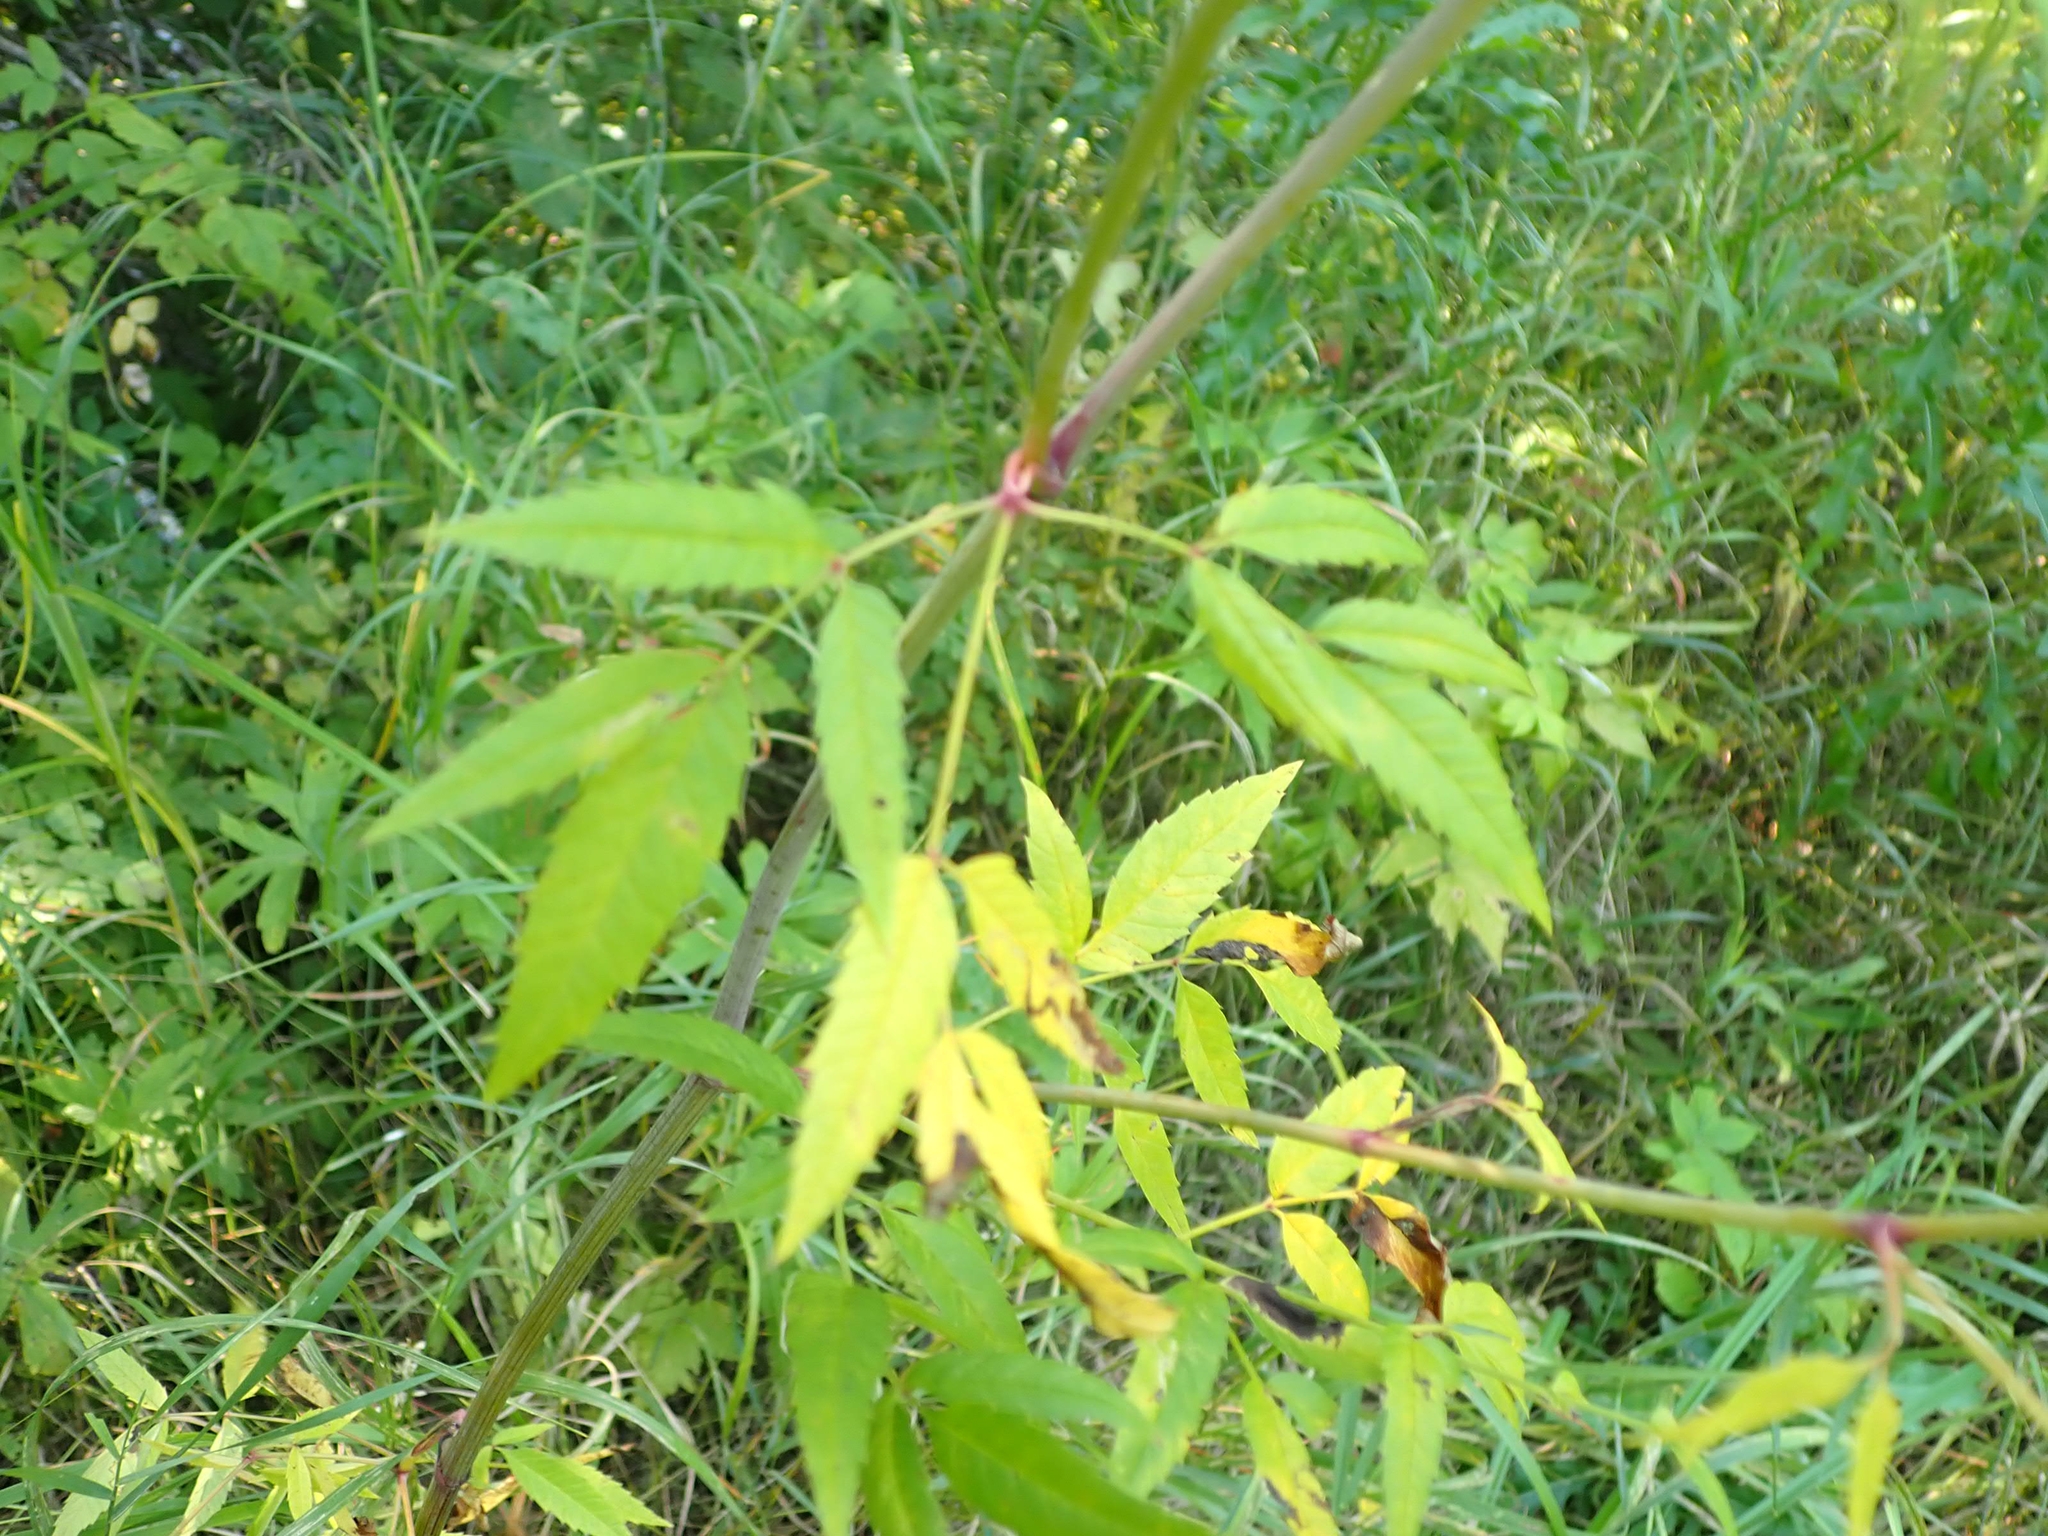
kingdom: Plantae
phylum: Tracheophyta
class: Magnoliopsida
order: Apiales
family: Apiaceae
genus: Cicuta
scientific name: Cicuta maculata
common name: Spotted cowbane
